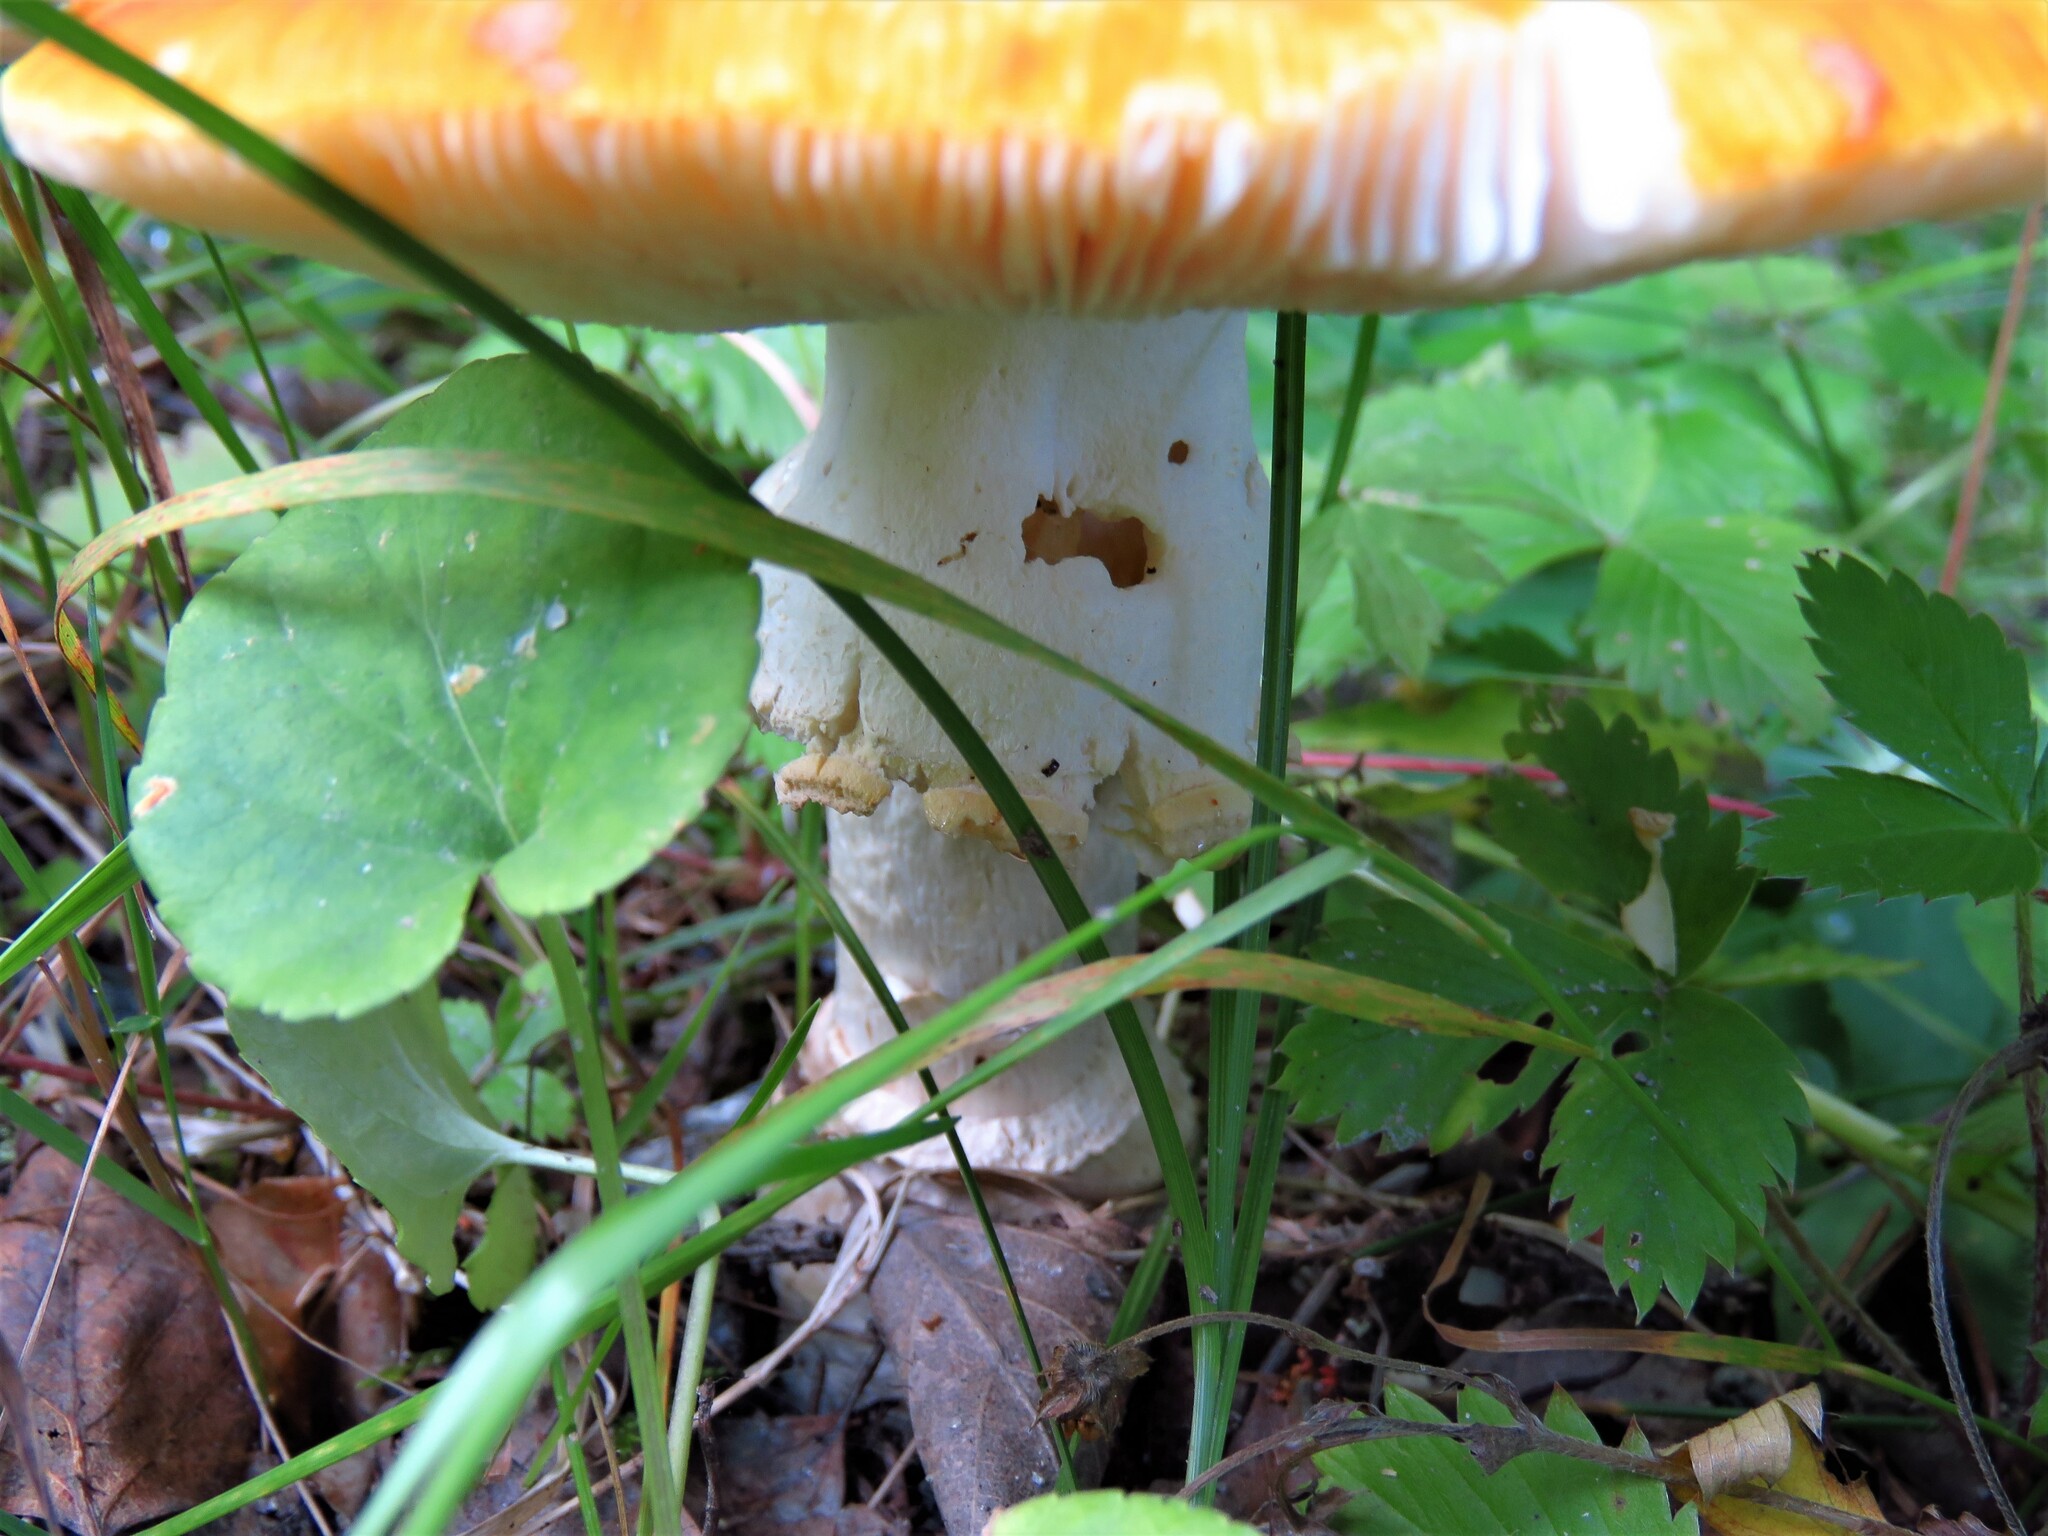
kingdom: Fungi
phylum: Basidiomycota
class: Agaricomycetes
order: Agaricales
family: Amanitaceae
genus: Amanita
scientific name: Amanita muscaria
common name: Fly agaric
